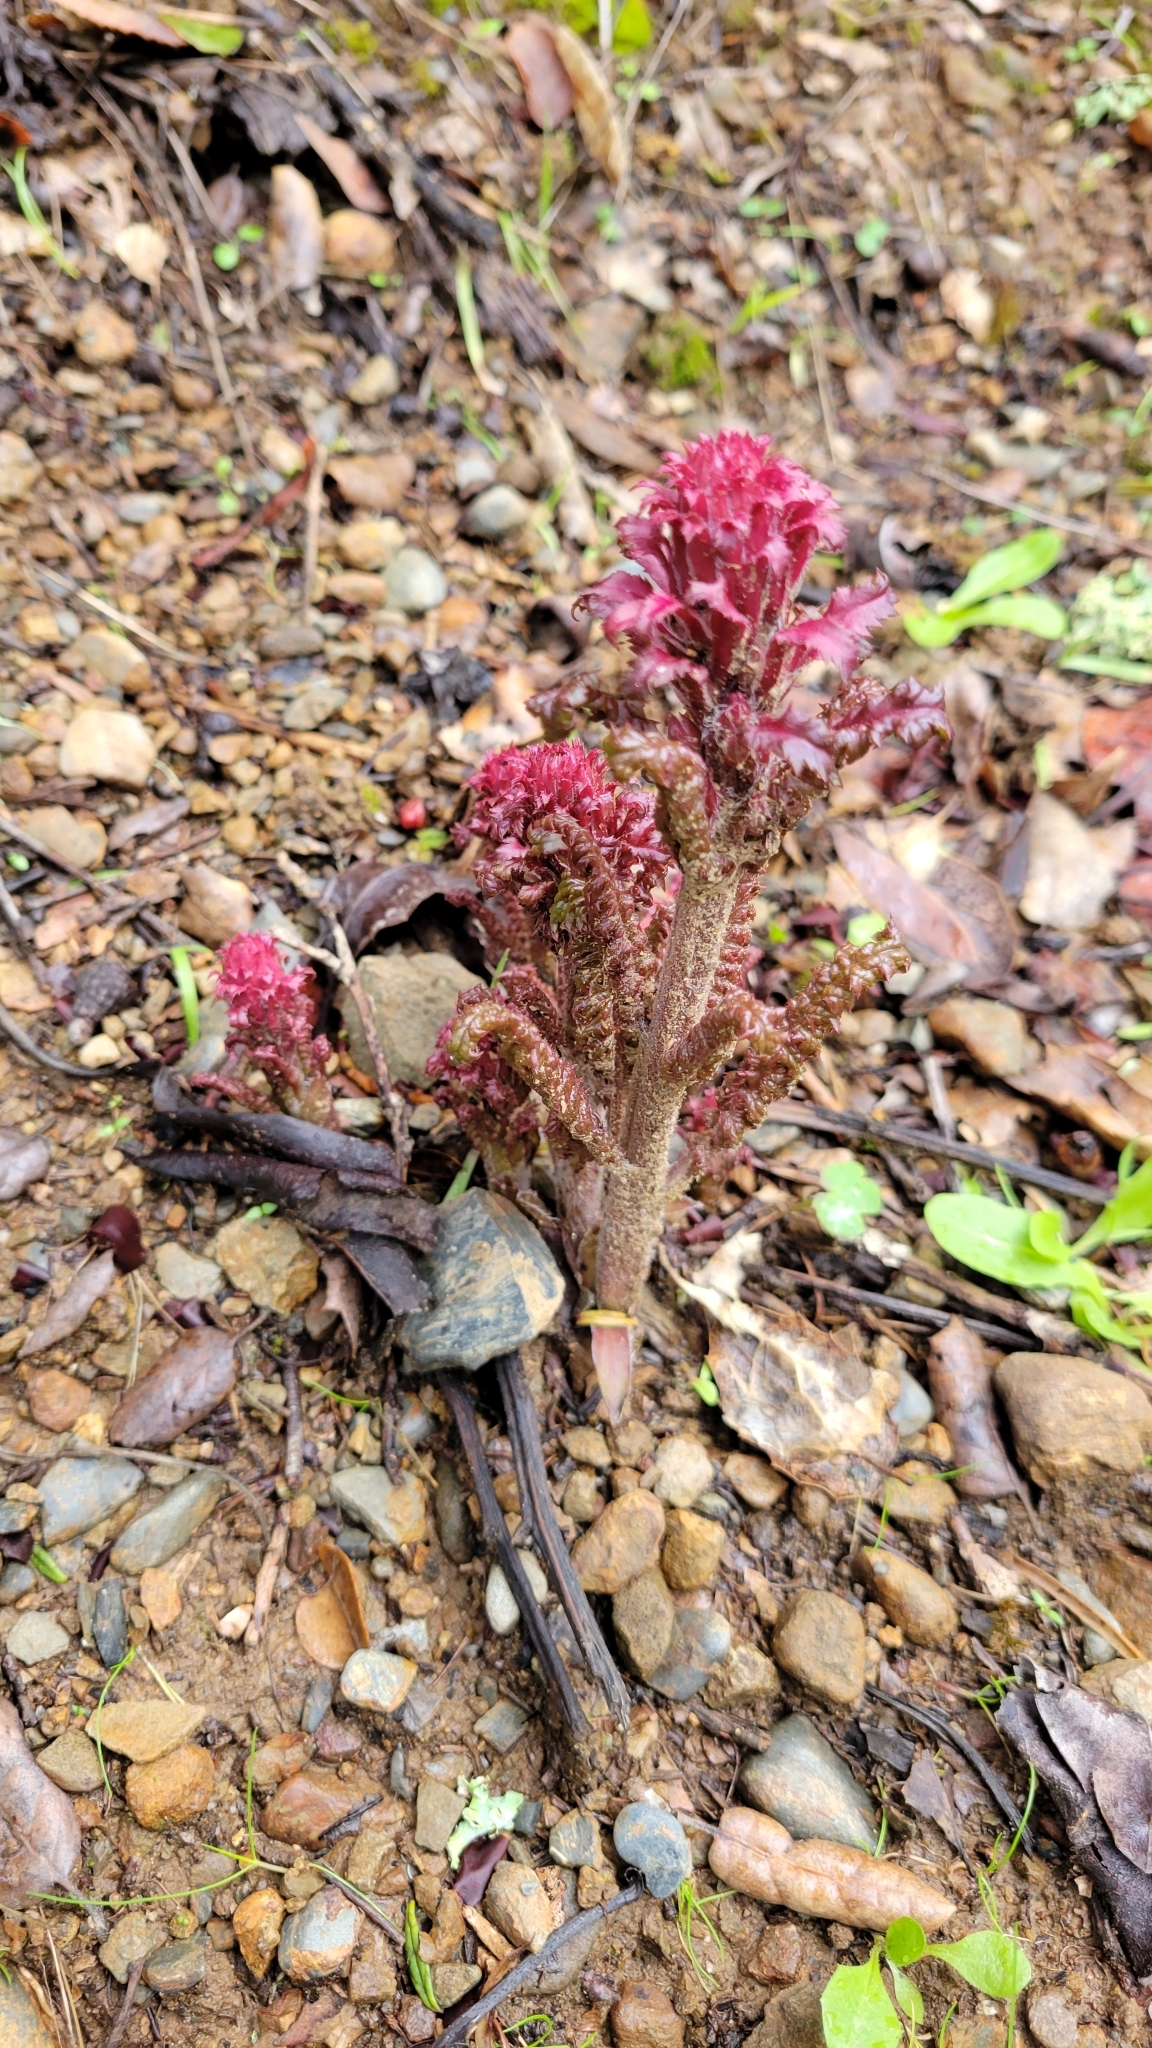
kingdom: Plantae
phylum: Tracheophyta
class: Magnoliopsida
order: Lamiales
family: Orobanchaceae
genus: Pedicularis
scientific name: Pedicularis densiflora
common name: Indian warrior
